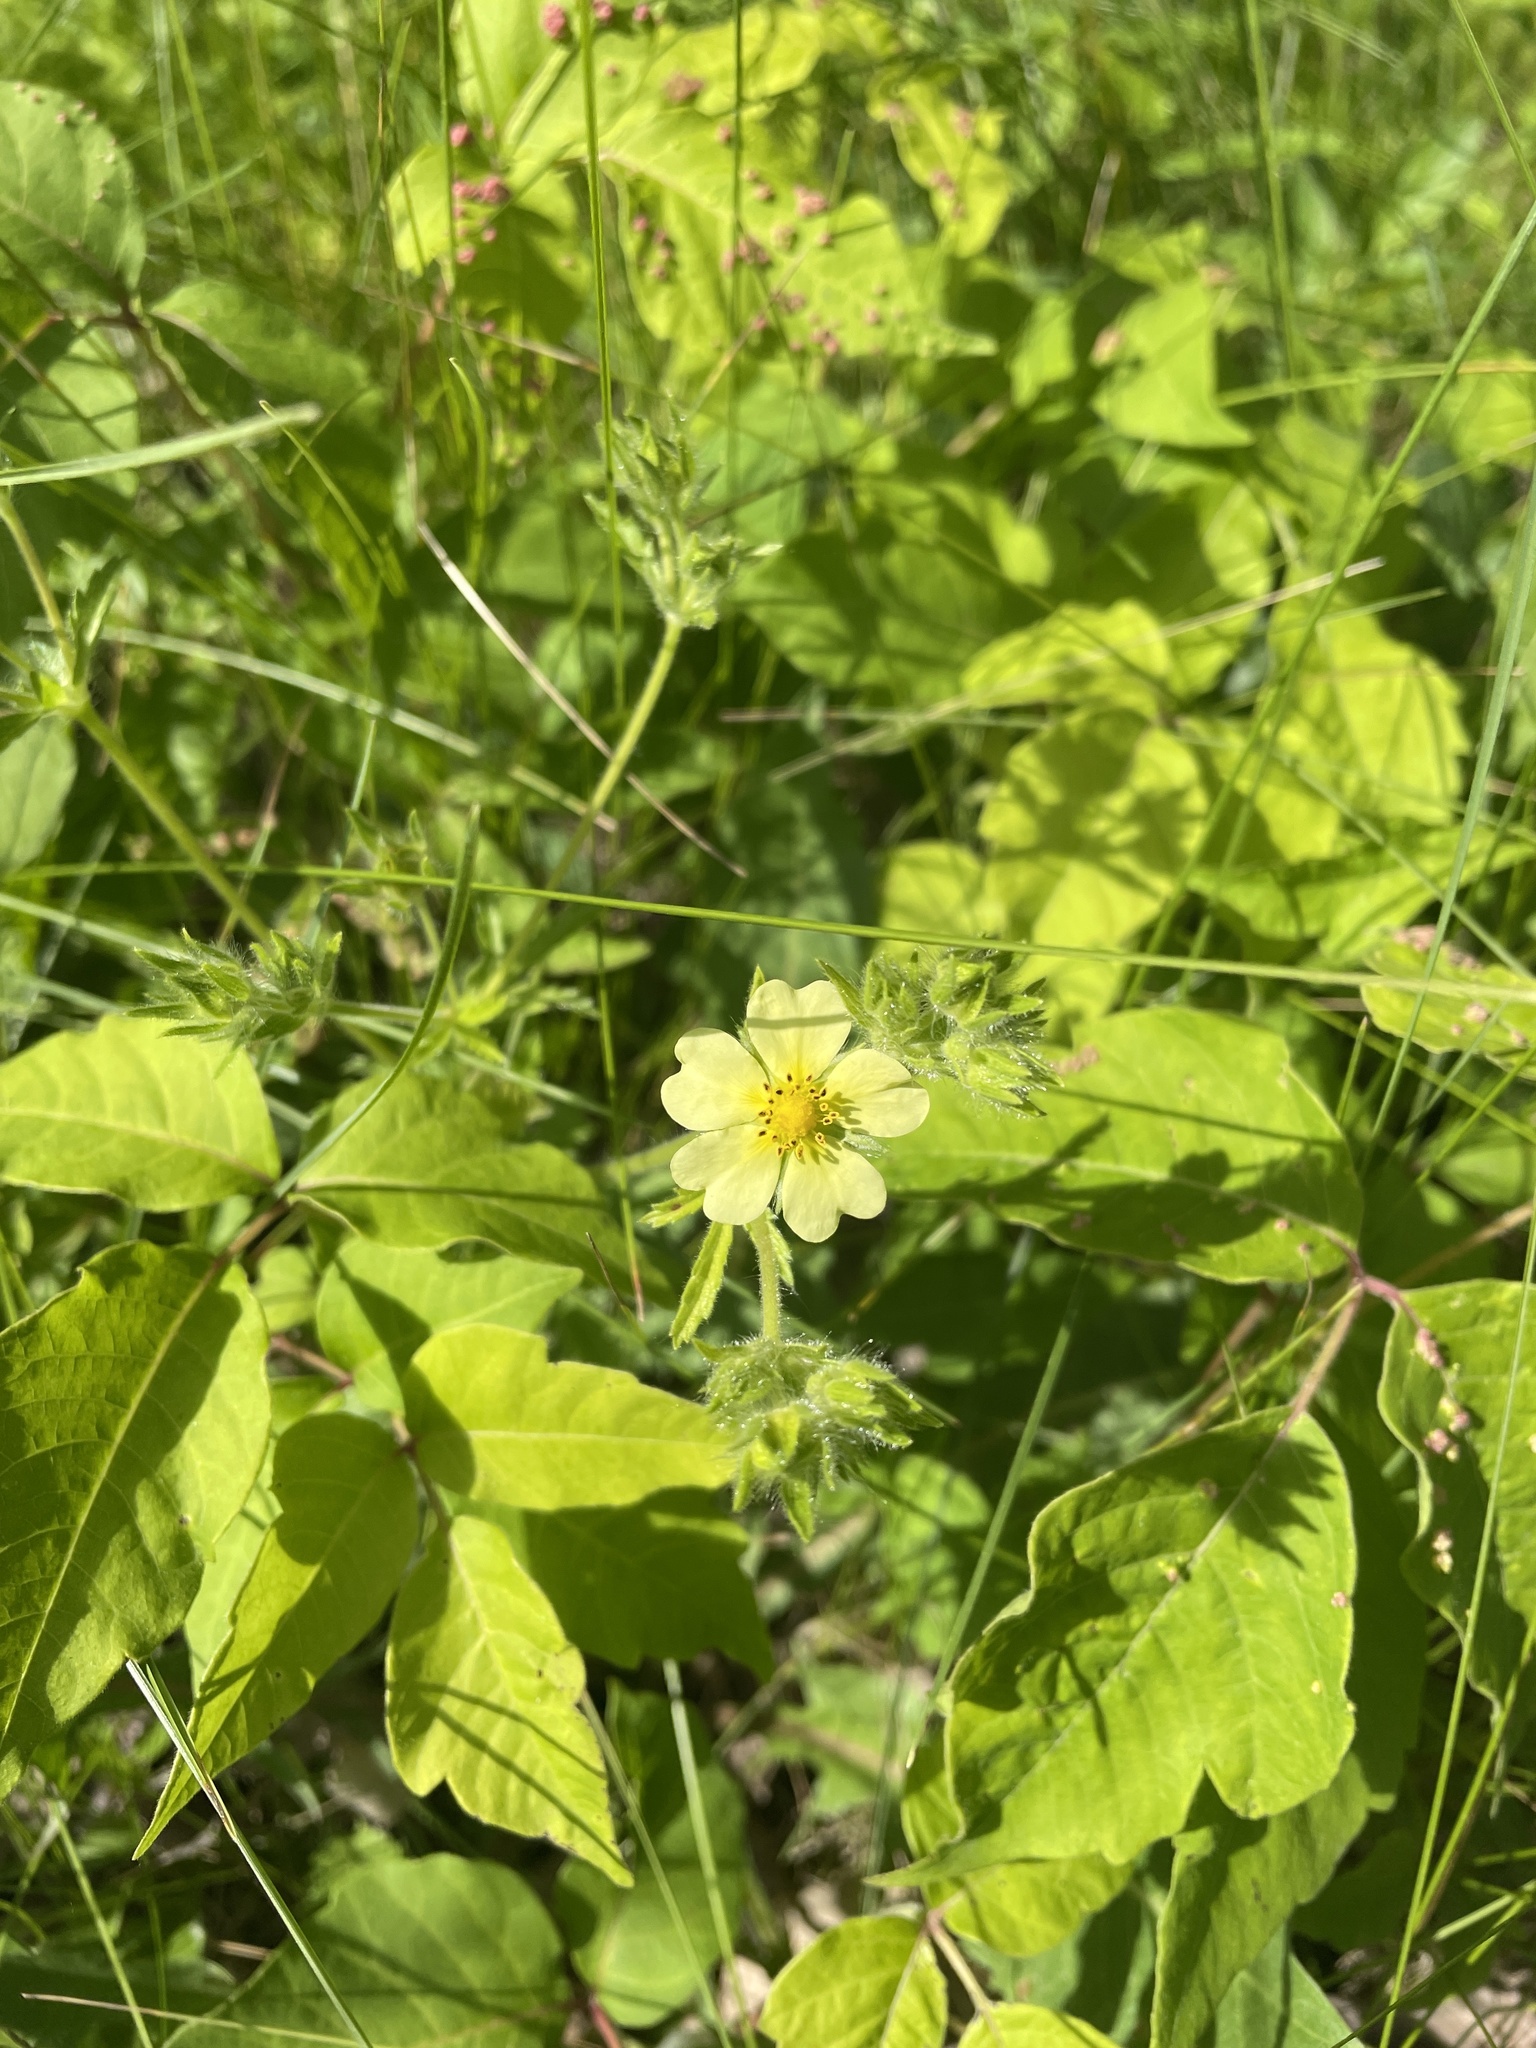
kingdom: Plantae
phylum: Tracheophyta
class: Magnoliopsida
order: Rosales
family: Rosaceae
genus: Potentilla
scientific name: Potentilla recta
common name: Sulphur cinquefoil
